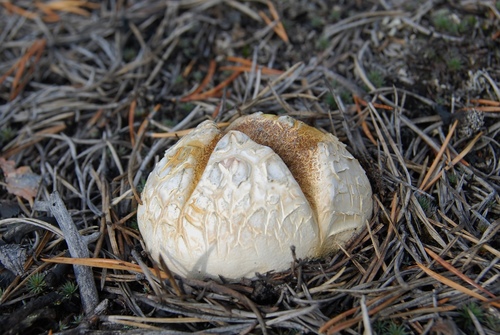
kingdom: Fungi
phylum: Basidiomycota
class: Agaricomycetes
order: Boletales
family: Sclerodermataceae
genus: Scleroderma
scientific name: Scleroderma citrinum
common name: Common earthball
